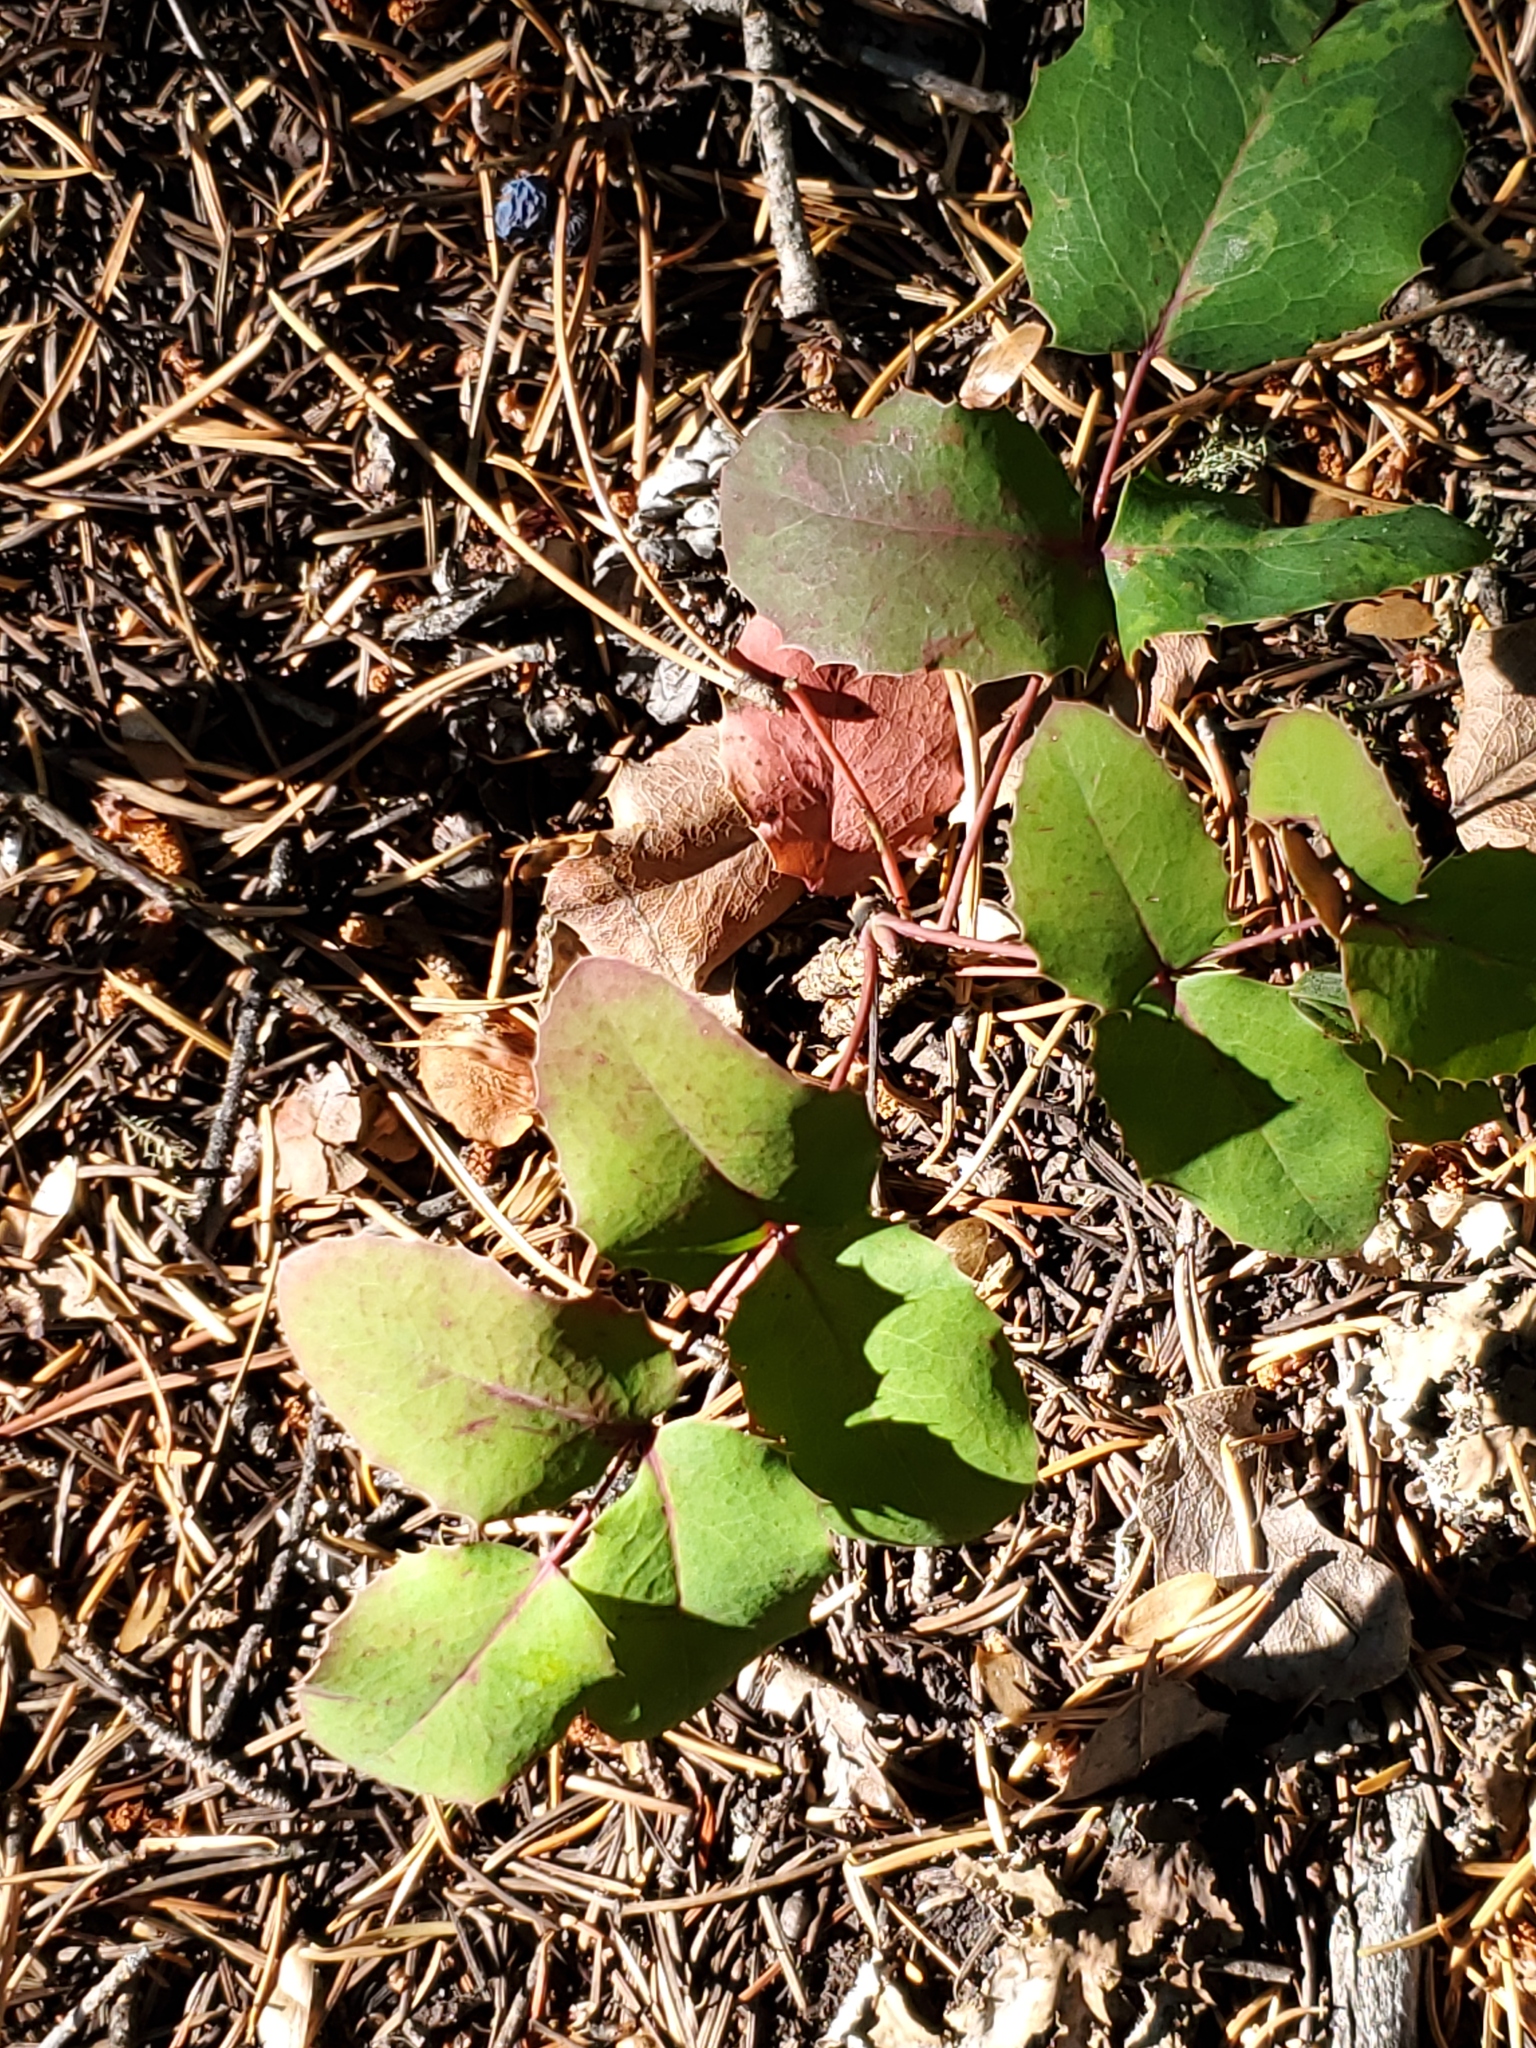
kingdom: Plantae
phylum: Tracheophyta
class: Magnoliopsida
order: Ranunculales
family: Berberidaceae
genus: Mahonia
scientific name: Mahonia repens
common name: Creeping oregon-grape
